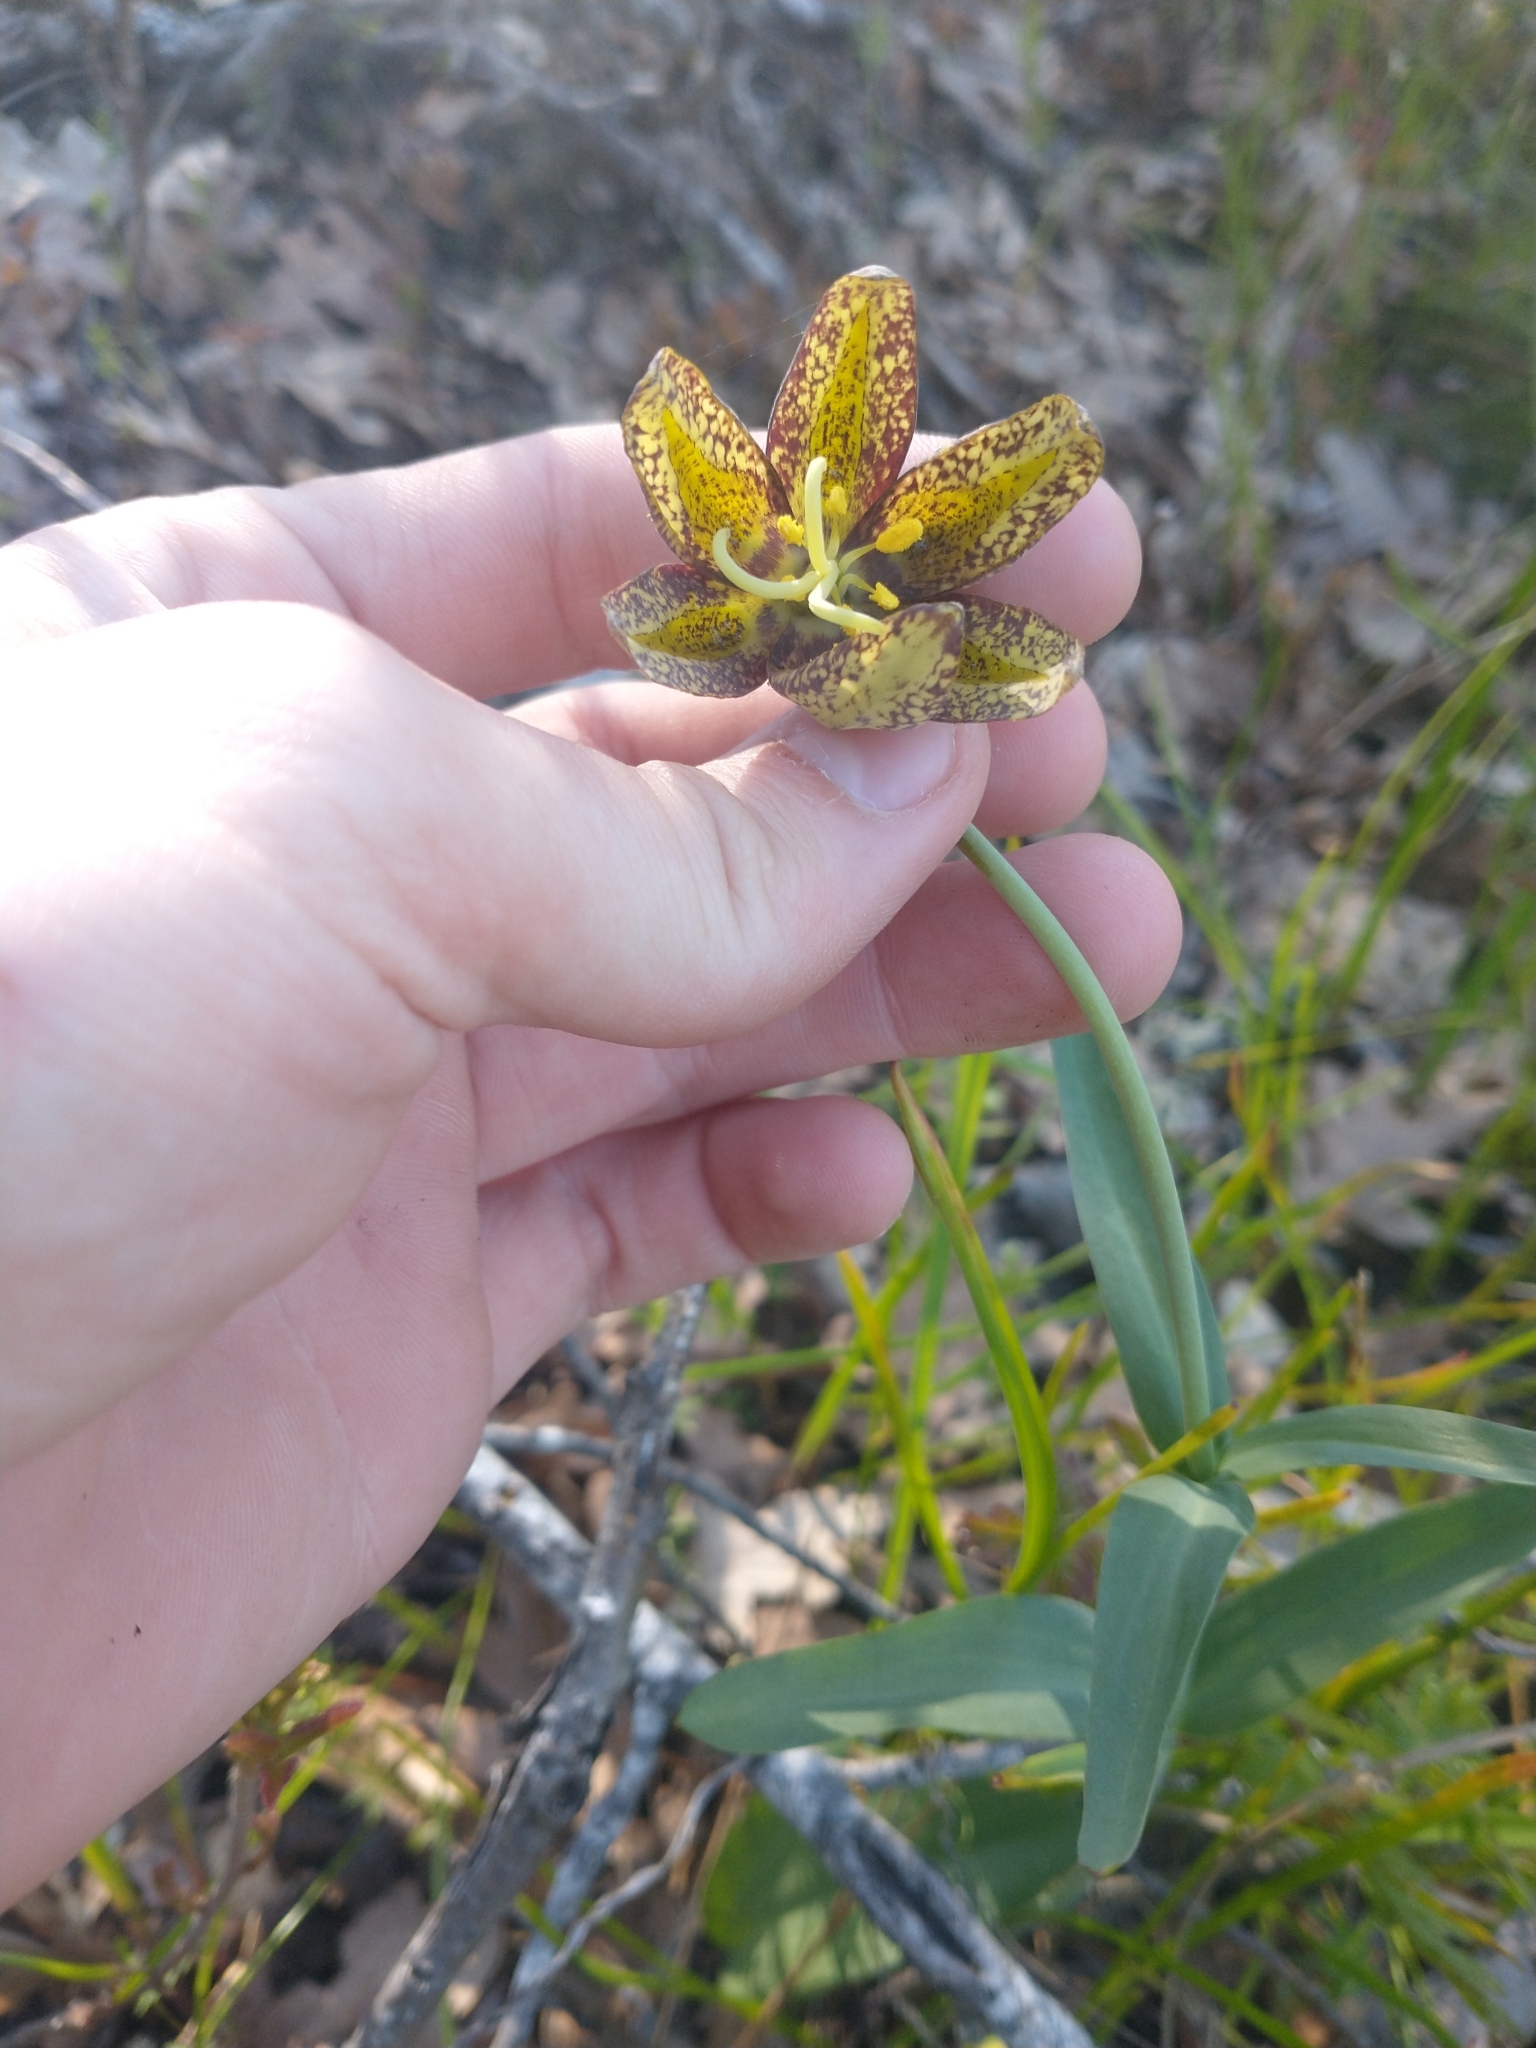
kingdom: Plantae
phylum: Tracheophyta
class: Liliopsida
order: Liliales
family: Liliaceae
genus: Fritillaria
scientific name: Fritillaria affinis
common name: Ojai fritillary
